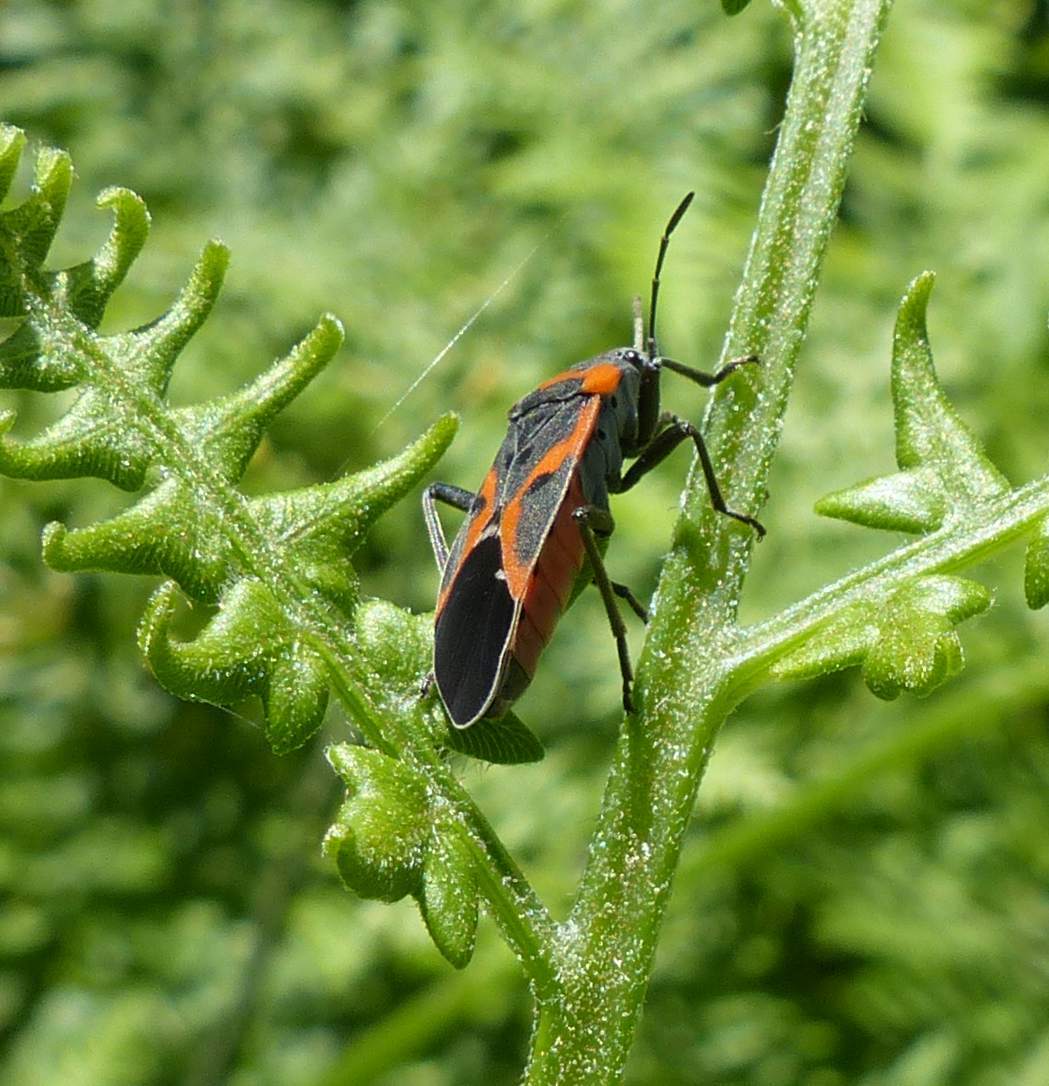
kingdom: Animalia
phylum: Arthropoda
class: Insecta
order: Hemiptera
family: Lygaeidae
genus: Lygaeus
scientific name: Lygaeus kalmii
